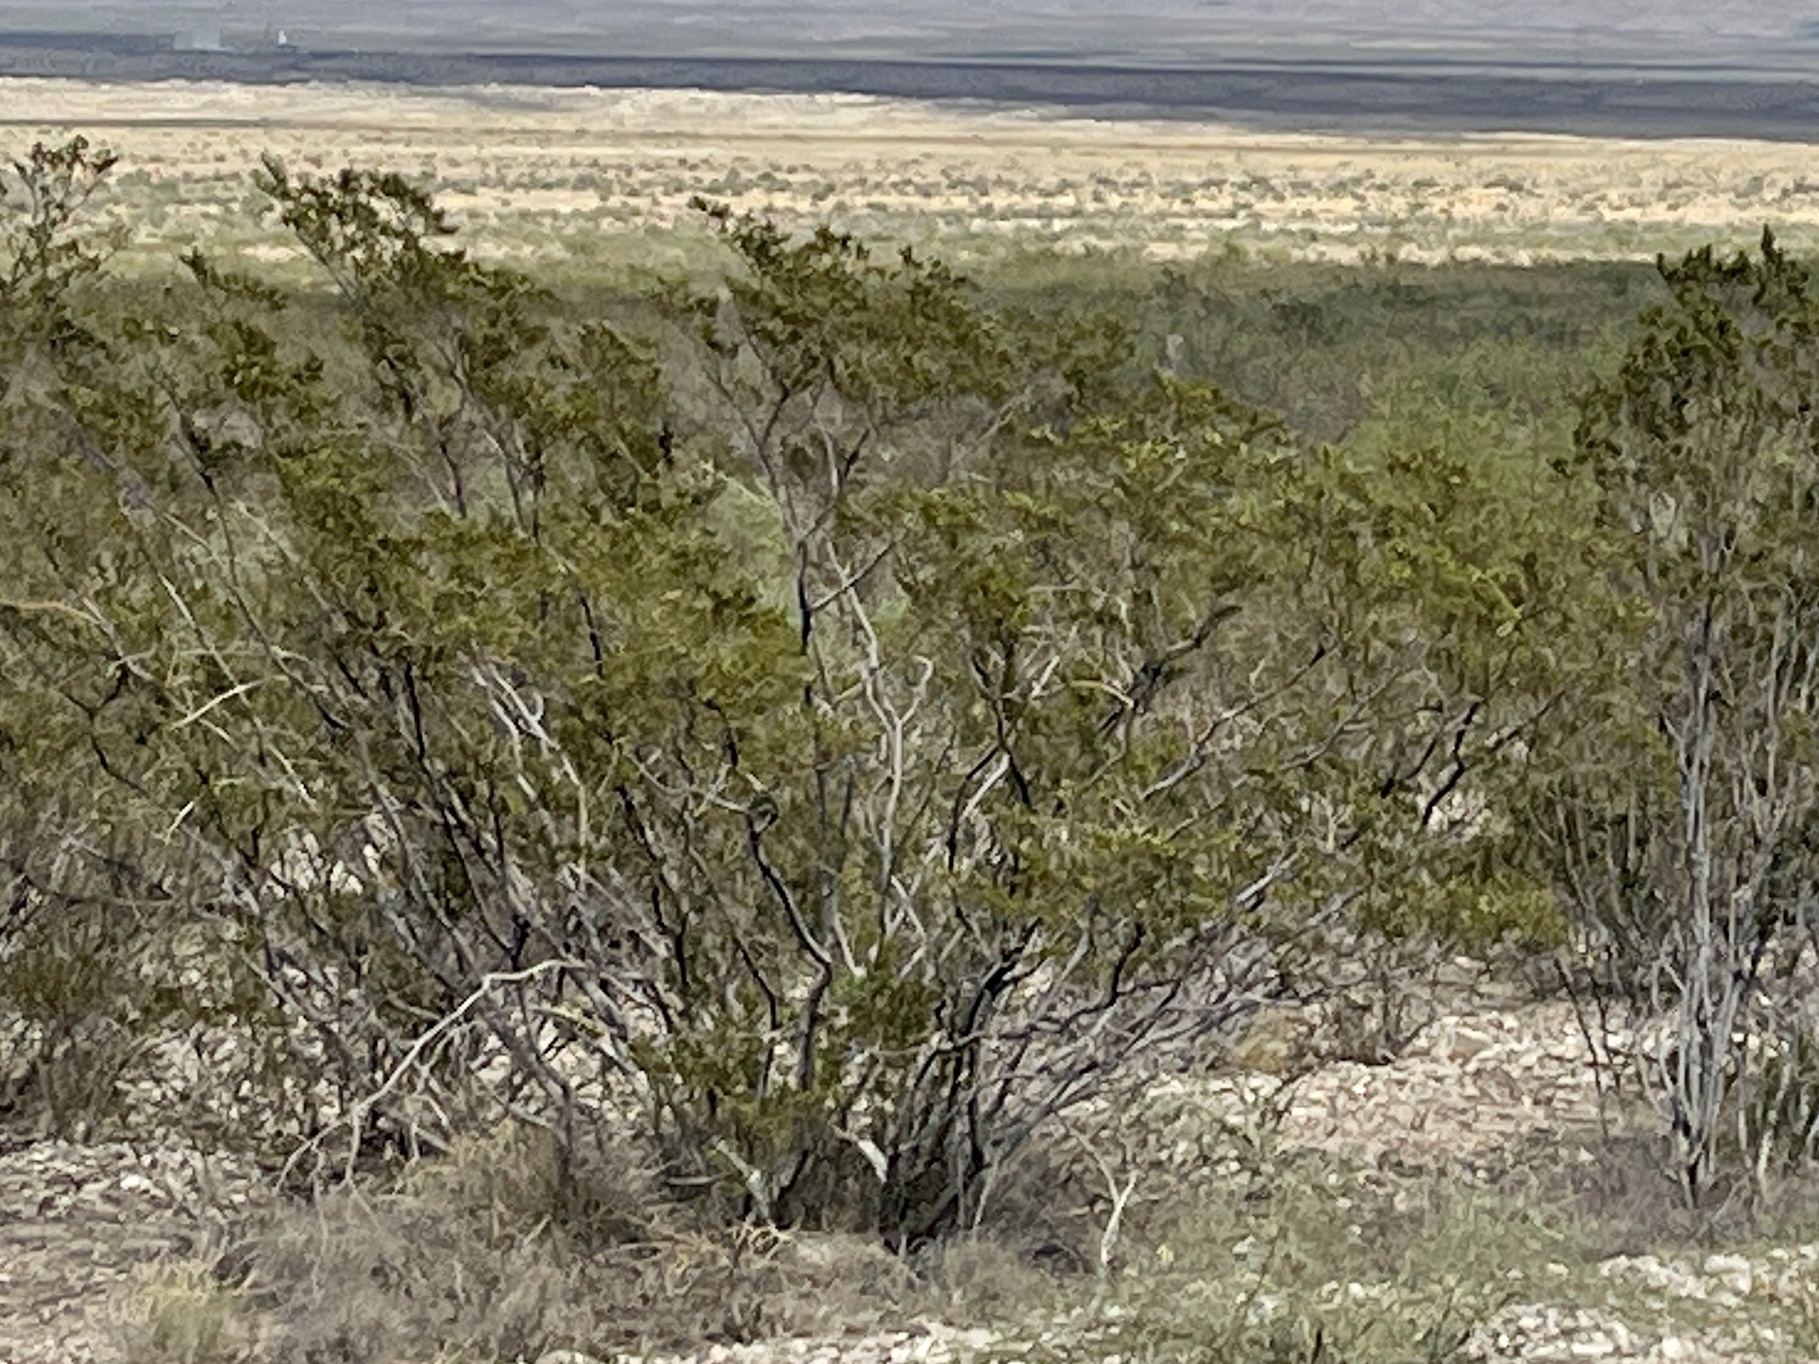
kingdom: Plantae
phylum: Tracheophyta
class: Magnoliopsida
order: Zygophyllales
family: Zygophyllaceae
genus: Larrea
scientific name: Larrea tridentata
